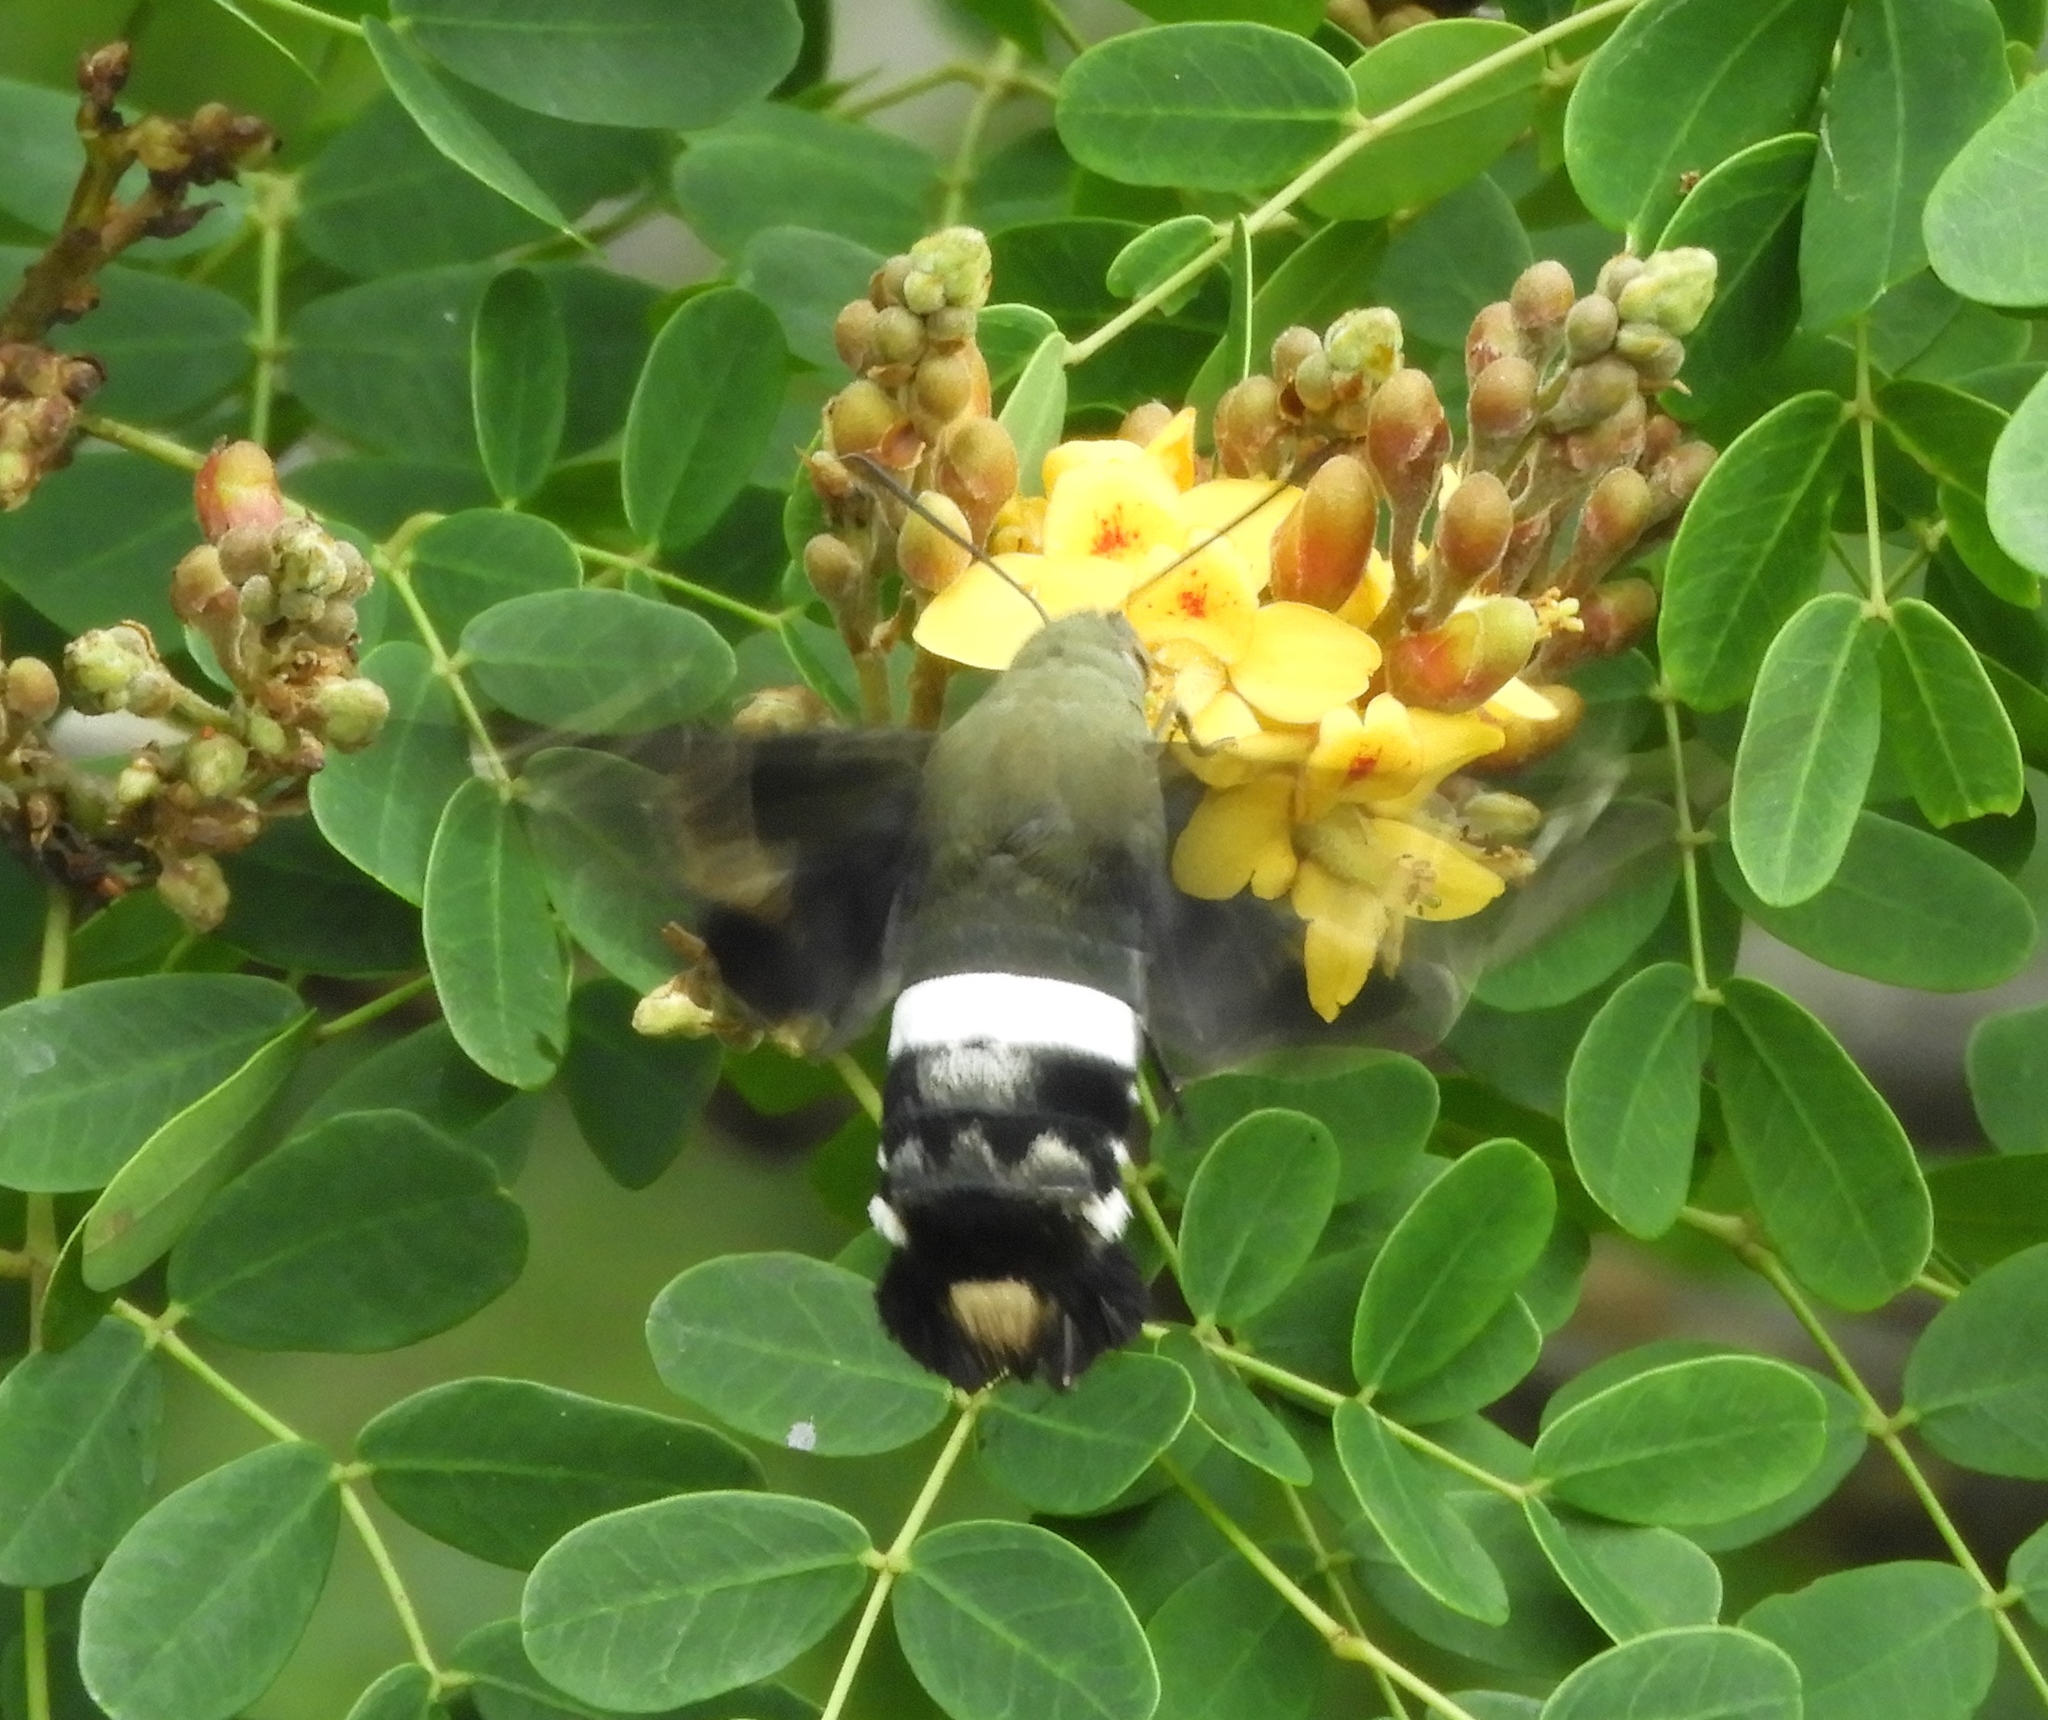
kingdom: Animalia
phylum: Arthropoda
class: Insecta
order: Lepidoptera
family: Sphingidae
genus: Aellopos
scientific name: Aellopos clavipes
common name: Clavipes sphinx
